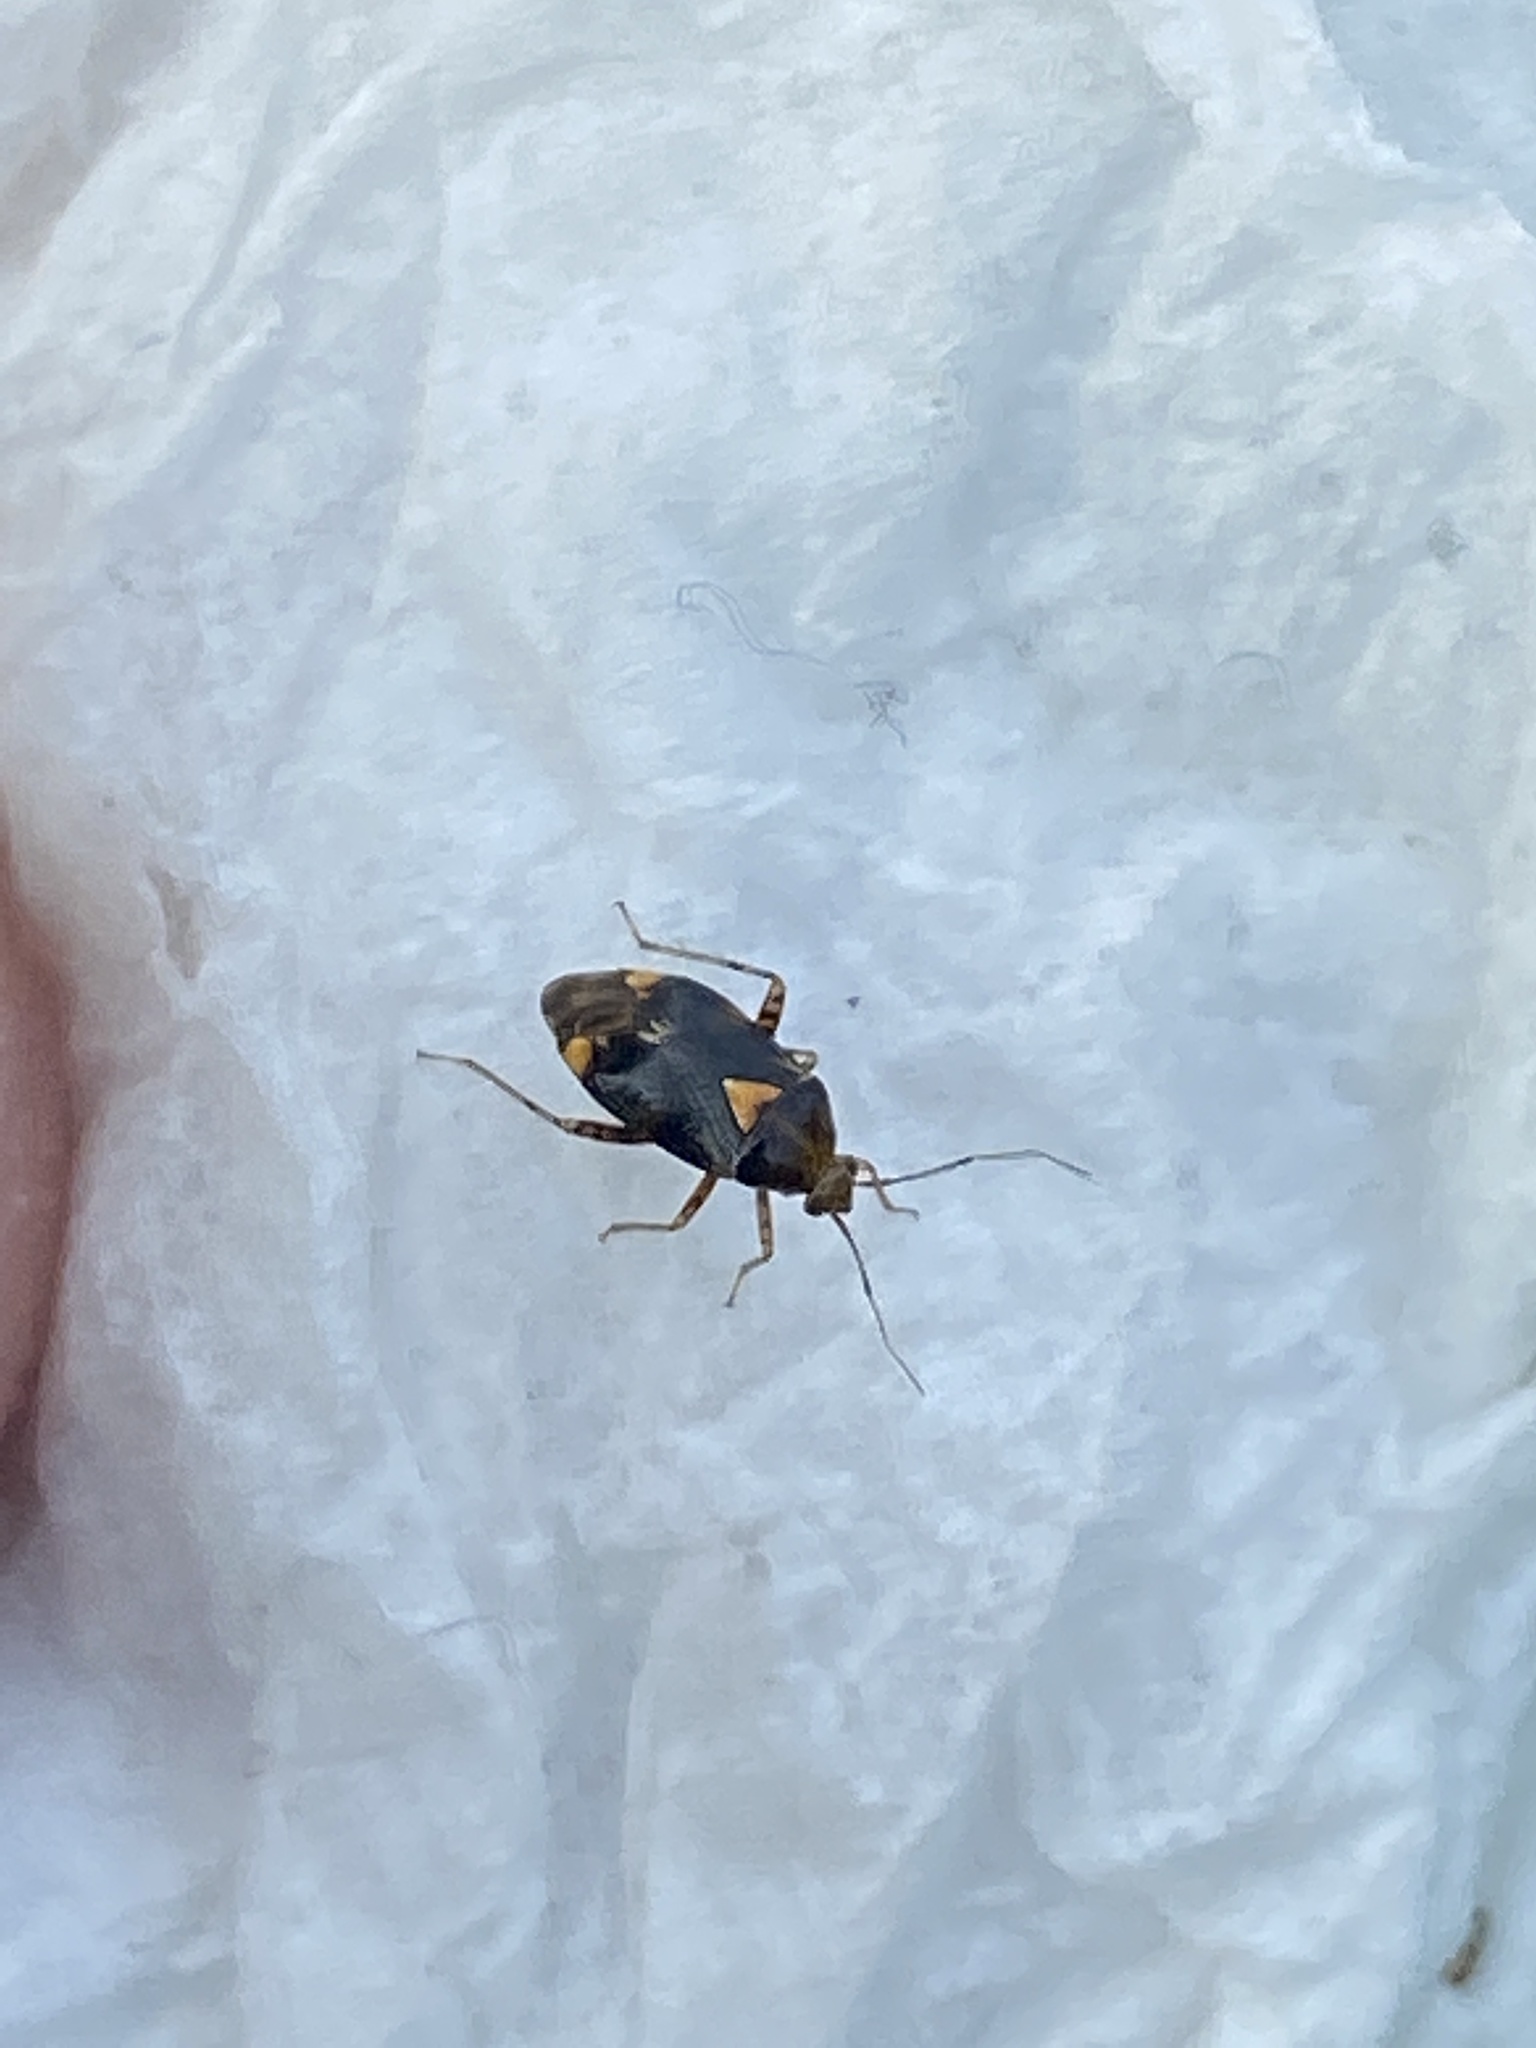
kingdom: Animalia
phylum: Arthropoda
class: Insecta
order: Hemiptera
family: Miridae
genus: Liocoris
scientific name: Liocoris tripustulatus
